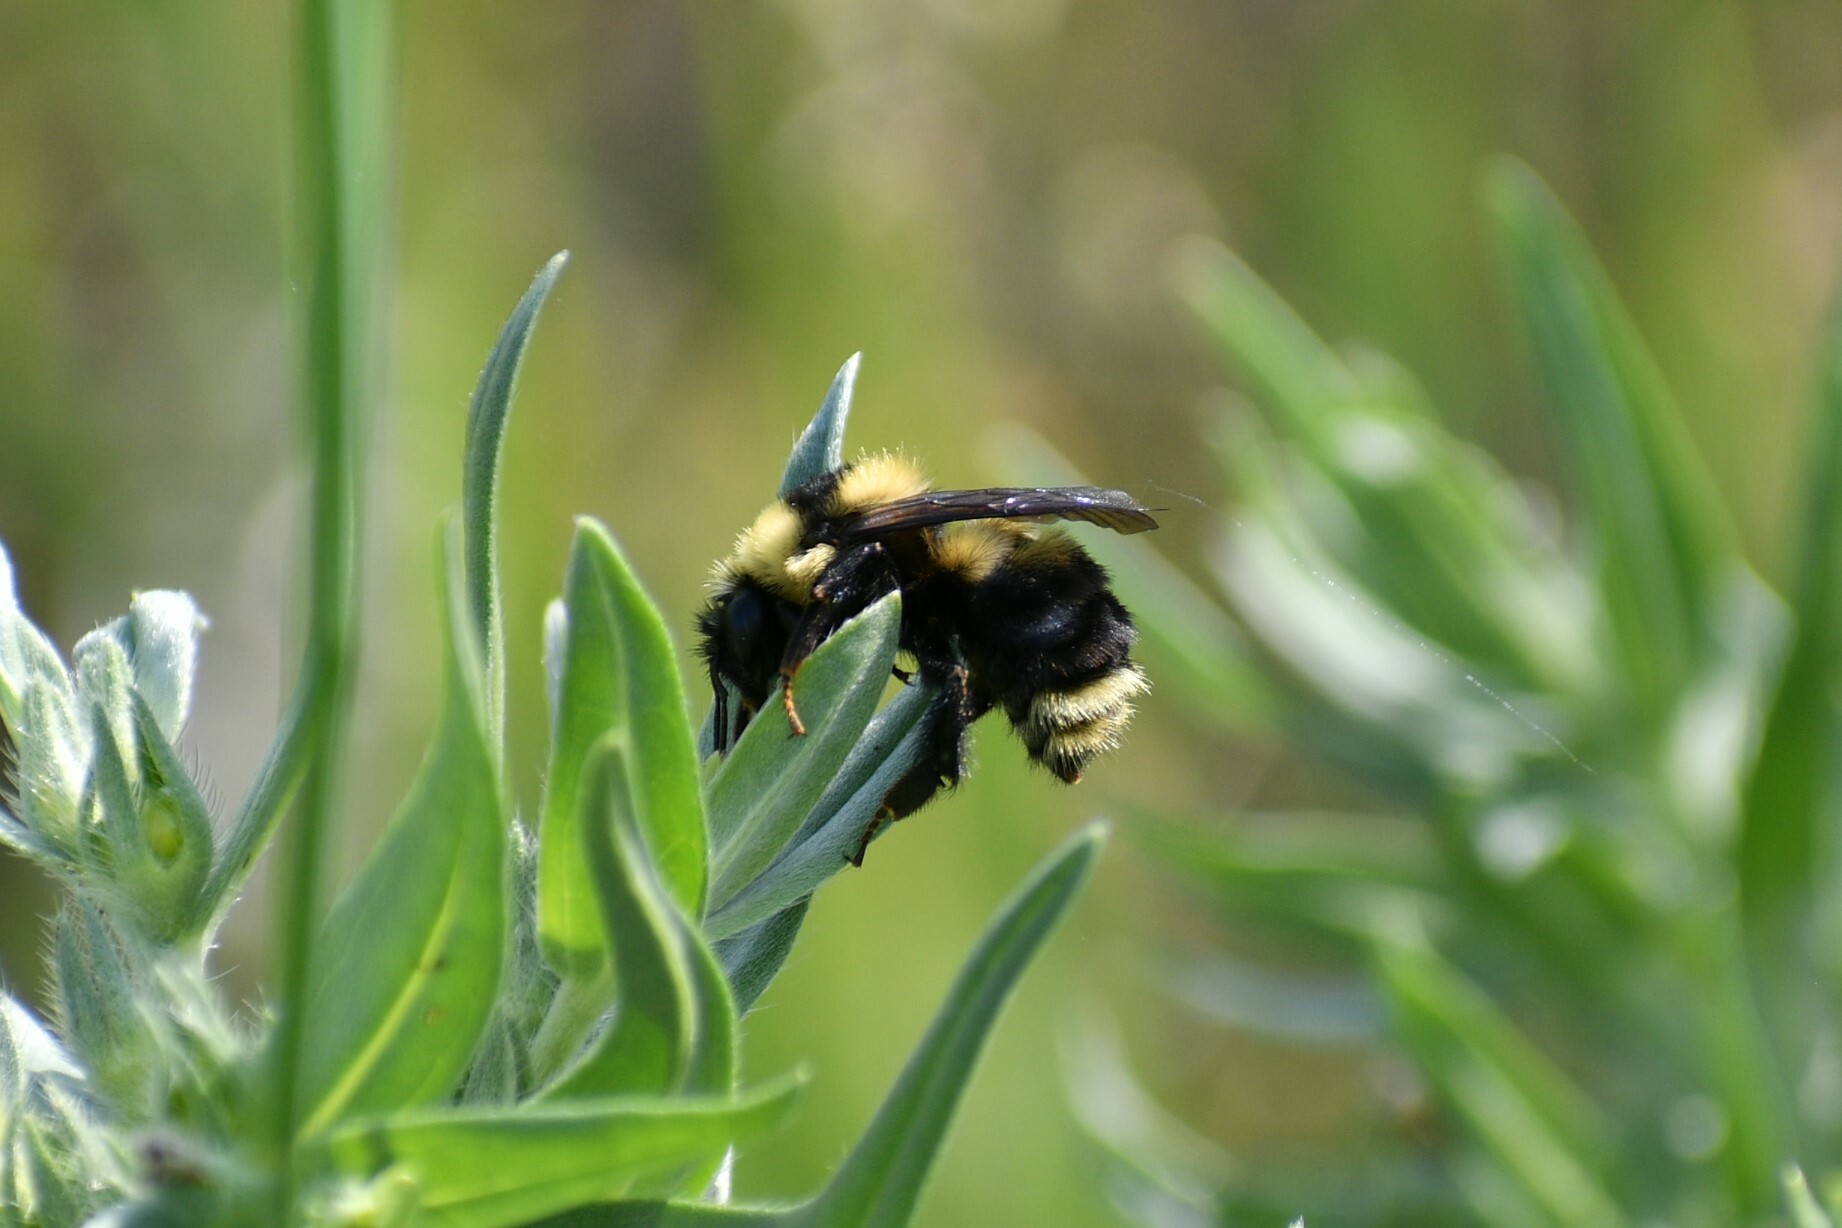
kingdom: Animalia
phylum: Arthropoda
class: Insecta
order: Hymenoptera
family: Apidae
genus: Bombus
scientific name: Bombus rufocinctus
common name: Red-belted bumble bee
